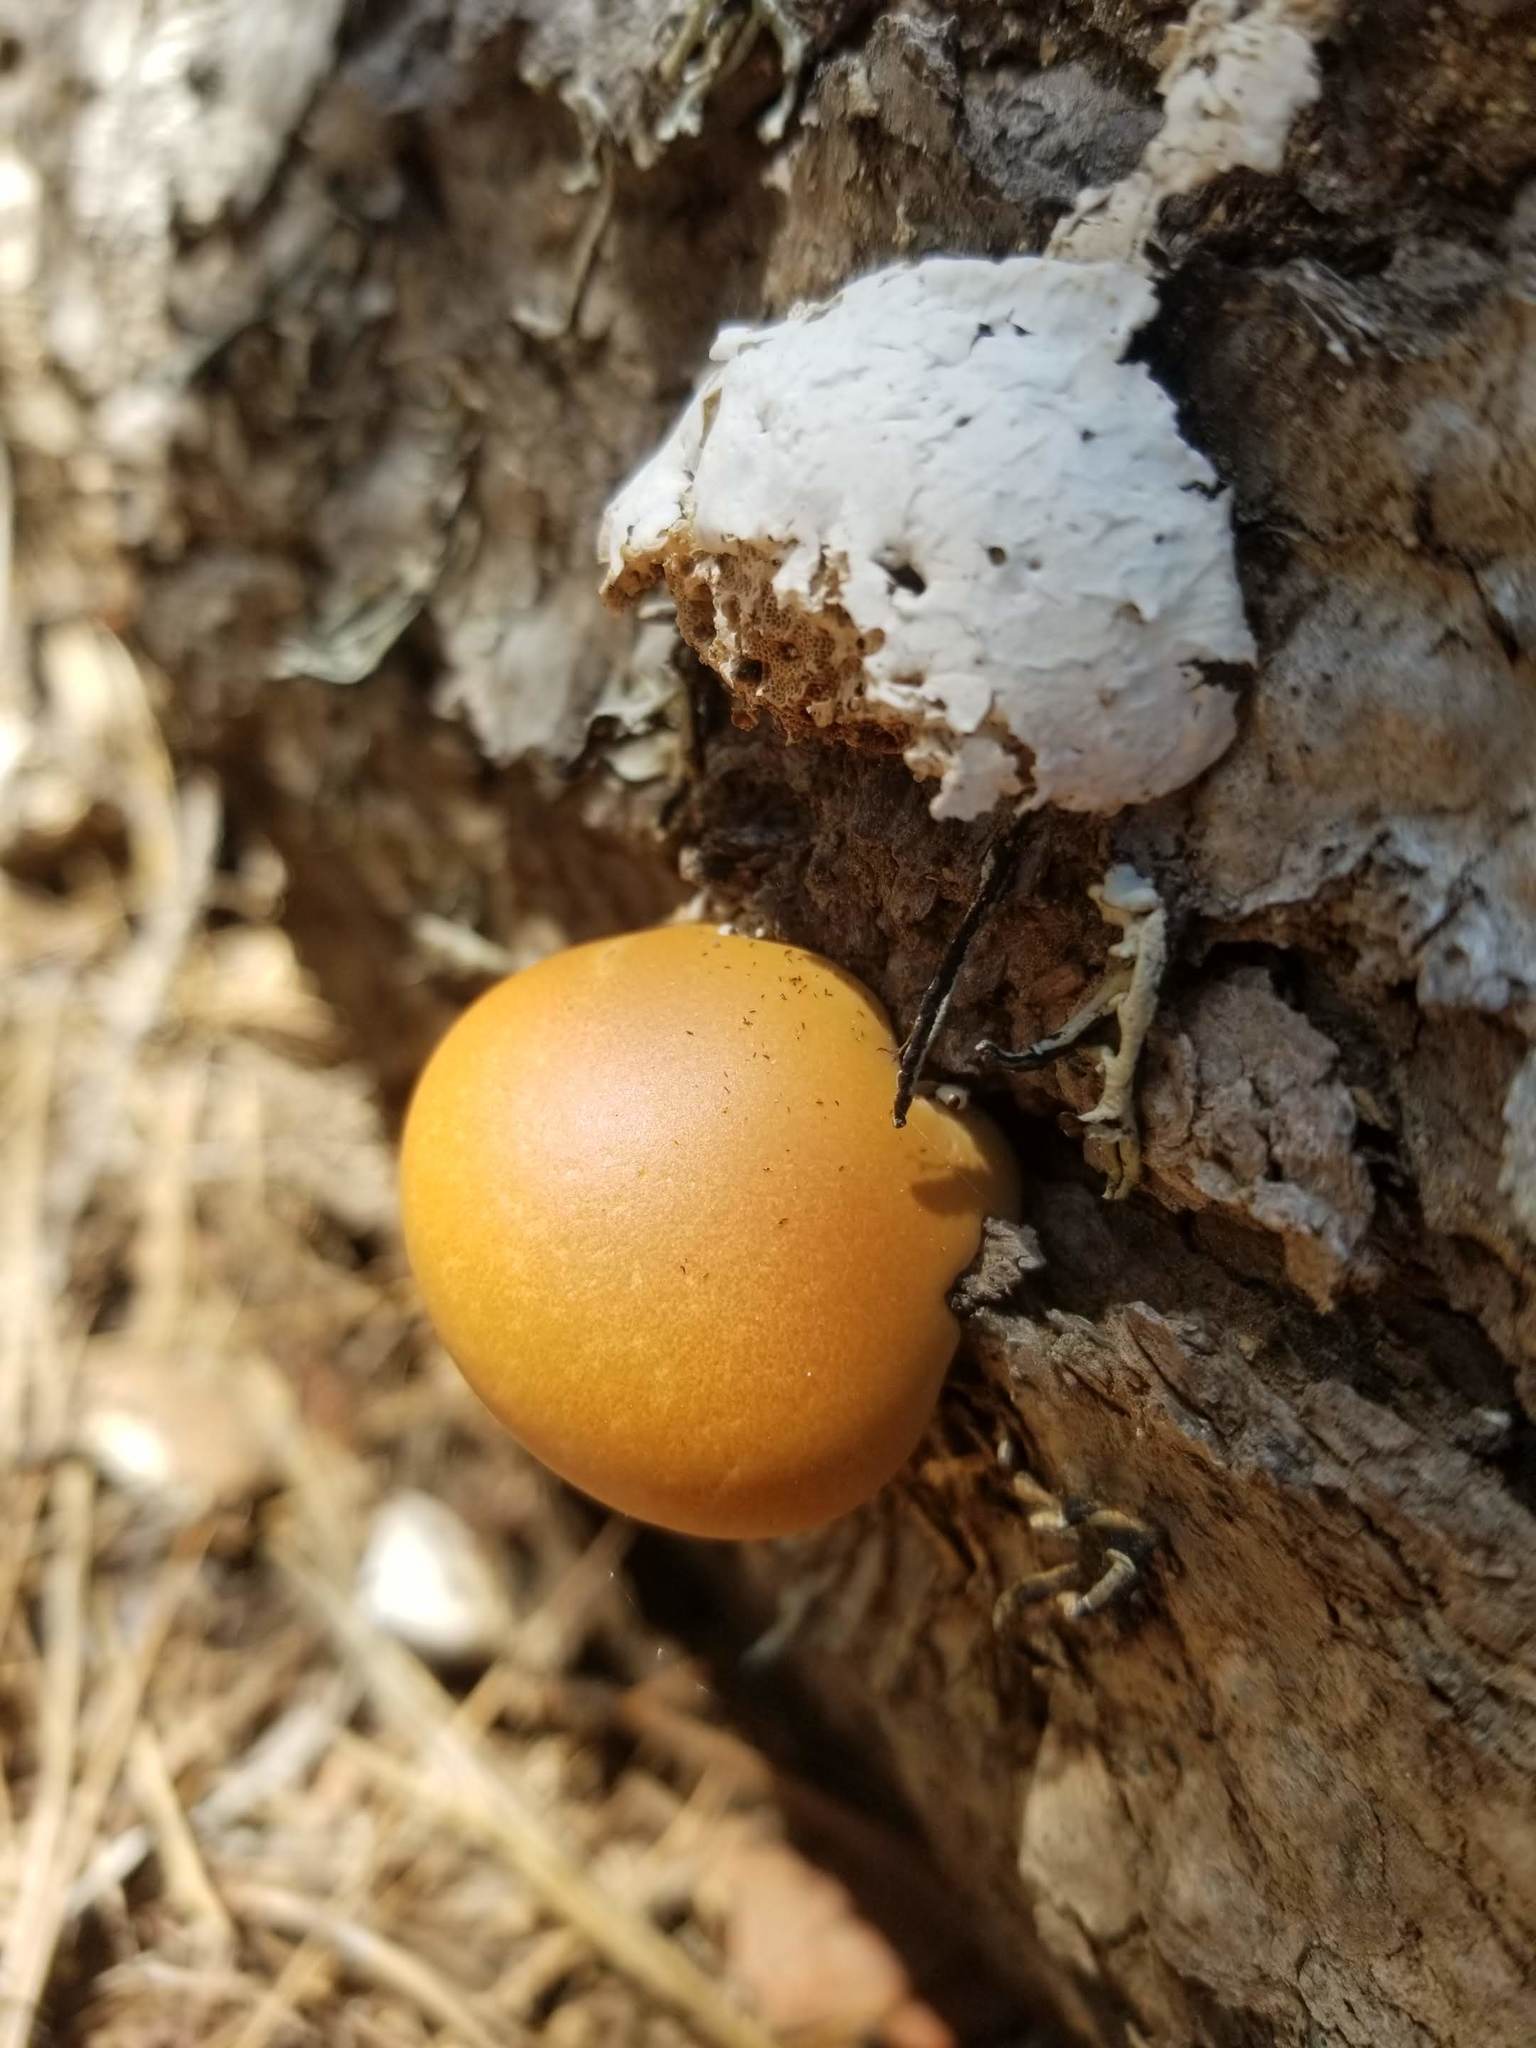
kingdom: Fungi
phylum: Basidiomycota
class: Agaricomycetes
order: Polyporales
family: Polyporaceae
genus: Cryptoporus
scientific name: Cryptoporus volvatus
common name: Veiled polypore
